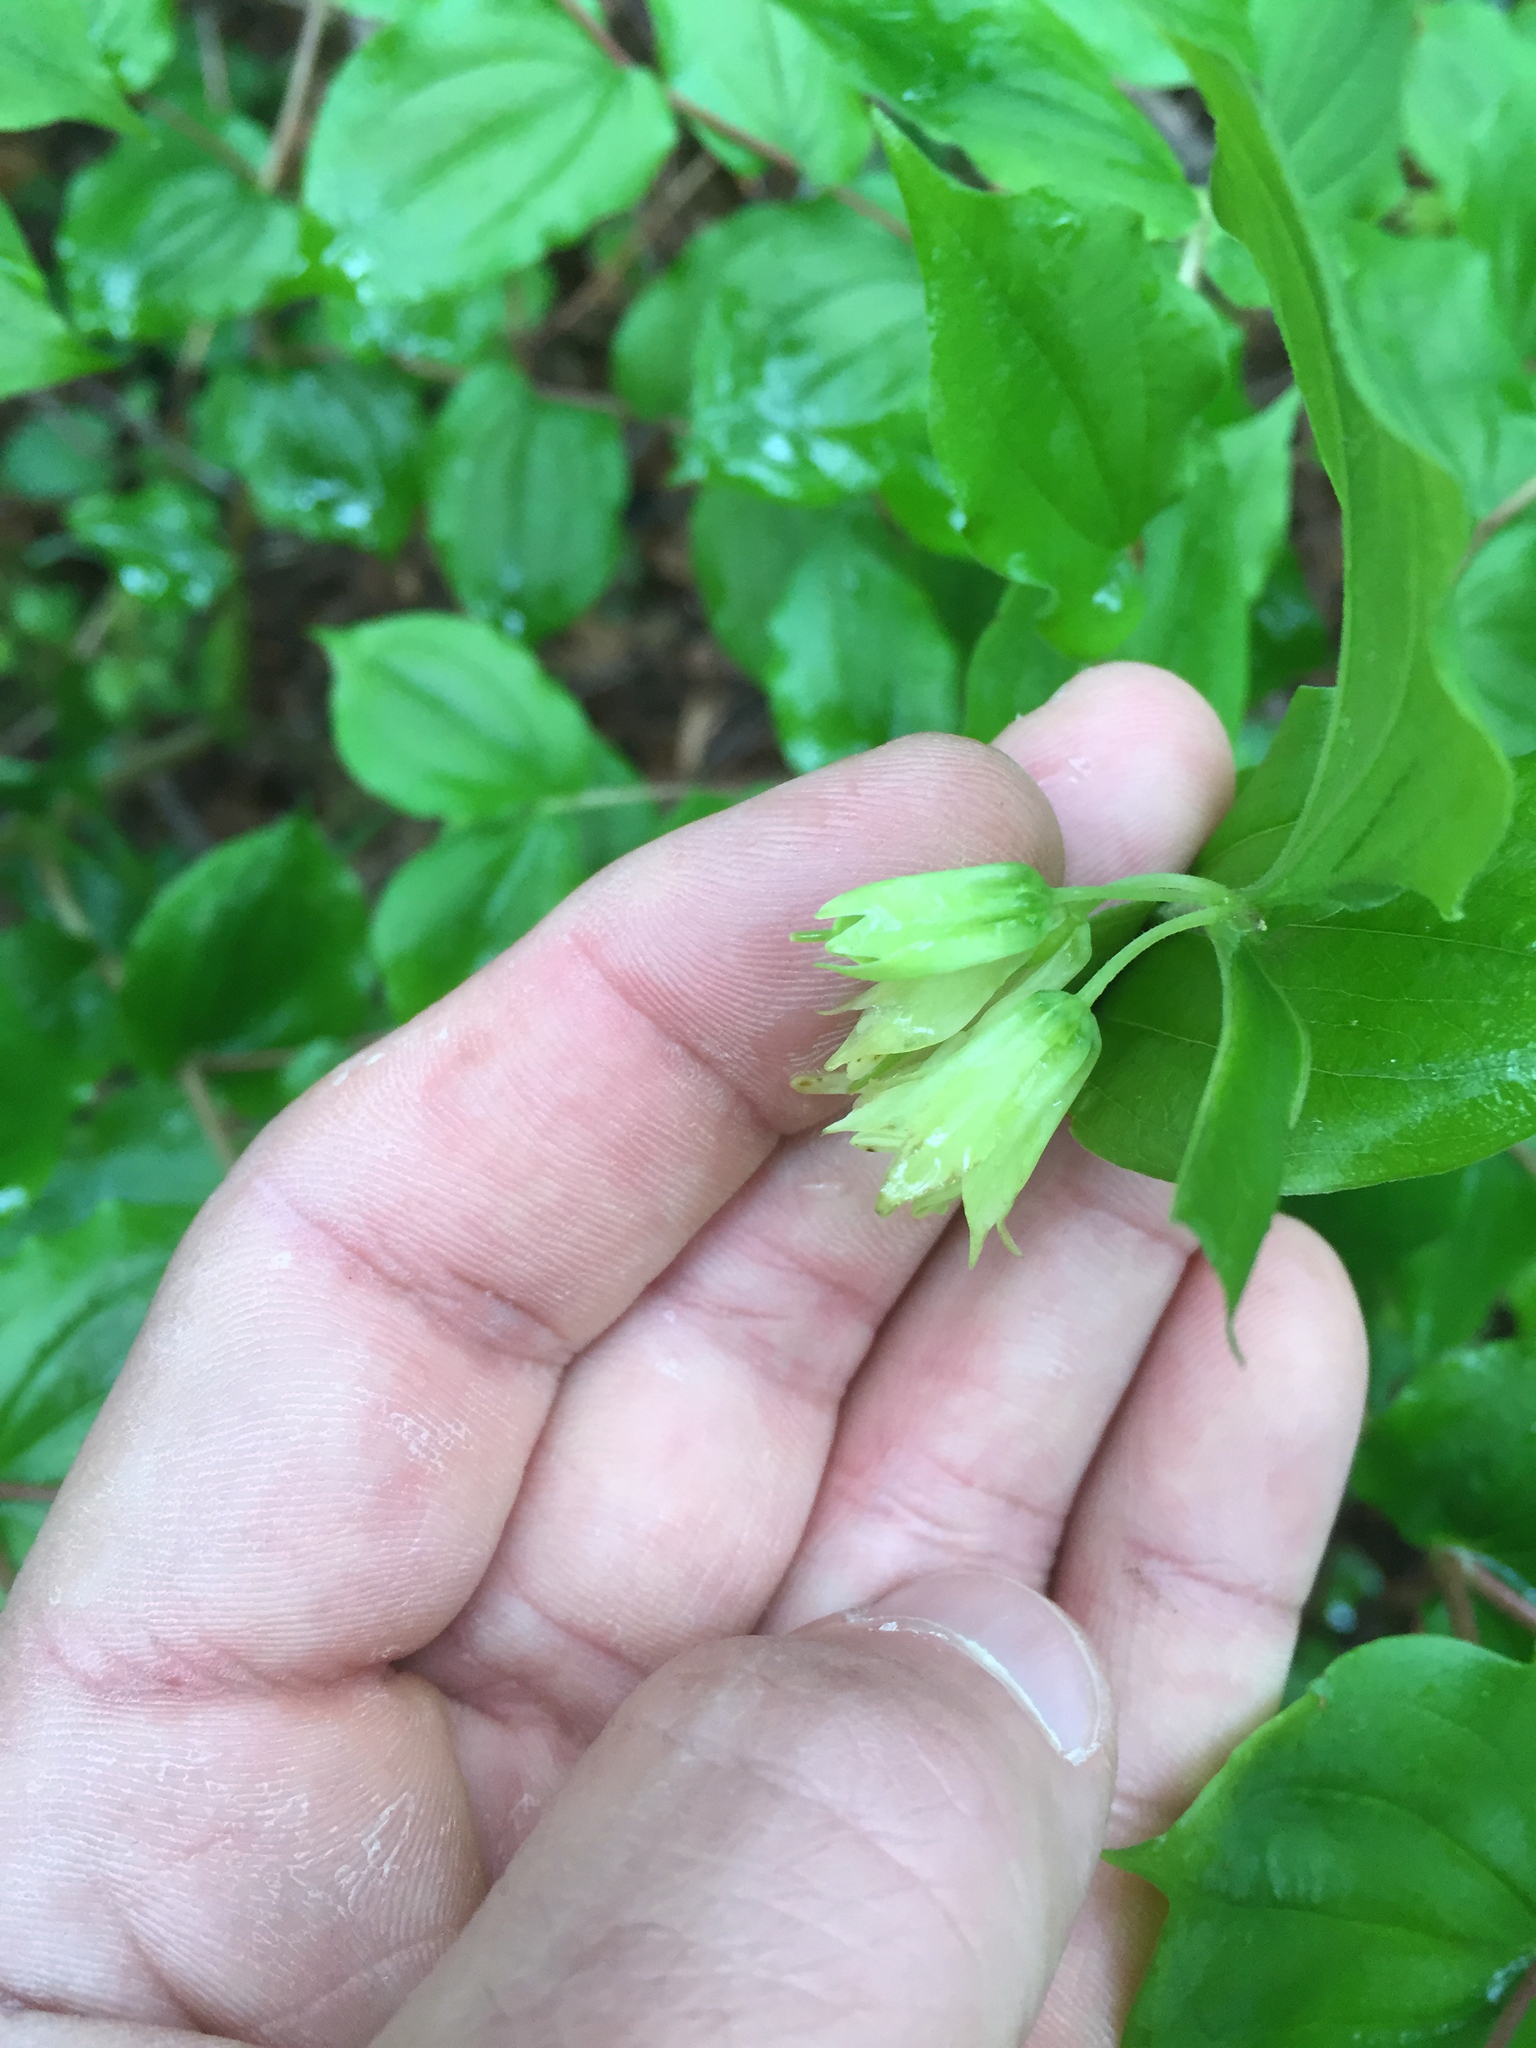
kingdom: Plantae
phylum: Tracheophyta
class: Liliopsida
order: Liliales
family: Liliaceae
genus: Prosartes
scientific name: Prosartes hookeri
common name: Fairy-bells
